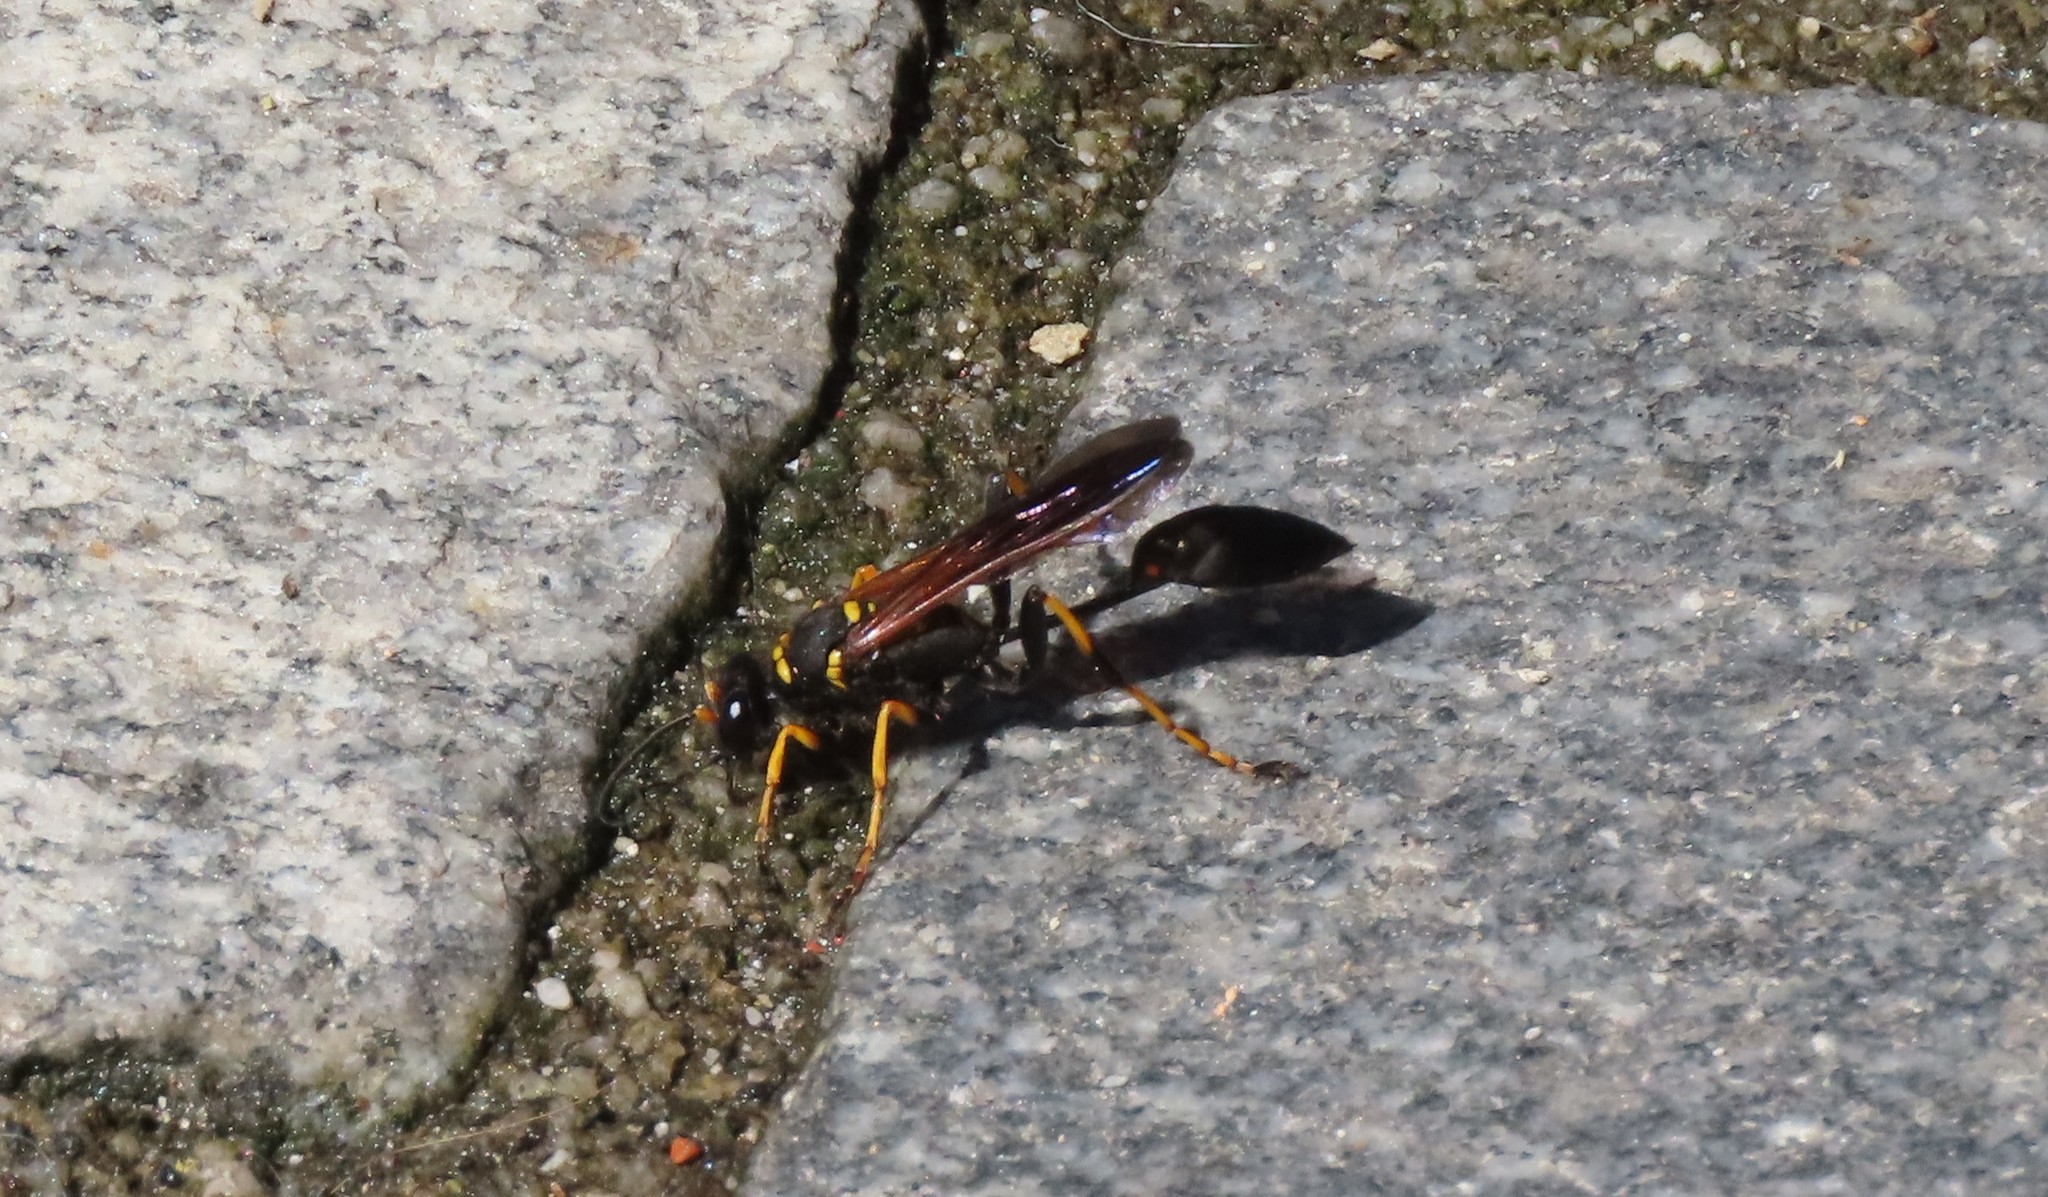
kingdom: Animalia
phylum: Arthropoda
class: Insecta
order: Hymenoptera
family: Sphecidae
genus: Sceliphron
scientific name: Sceliphron caementarium
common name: Mud dauber
